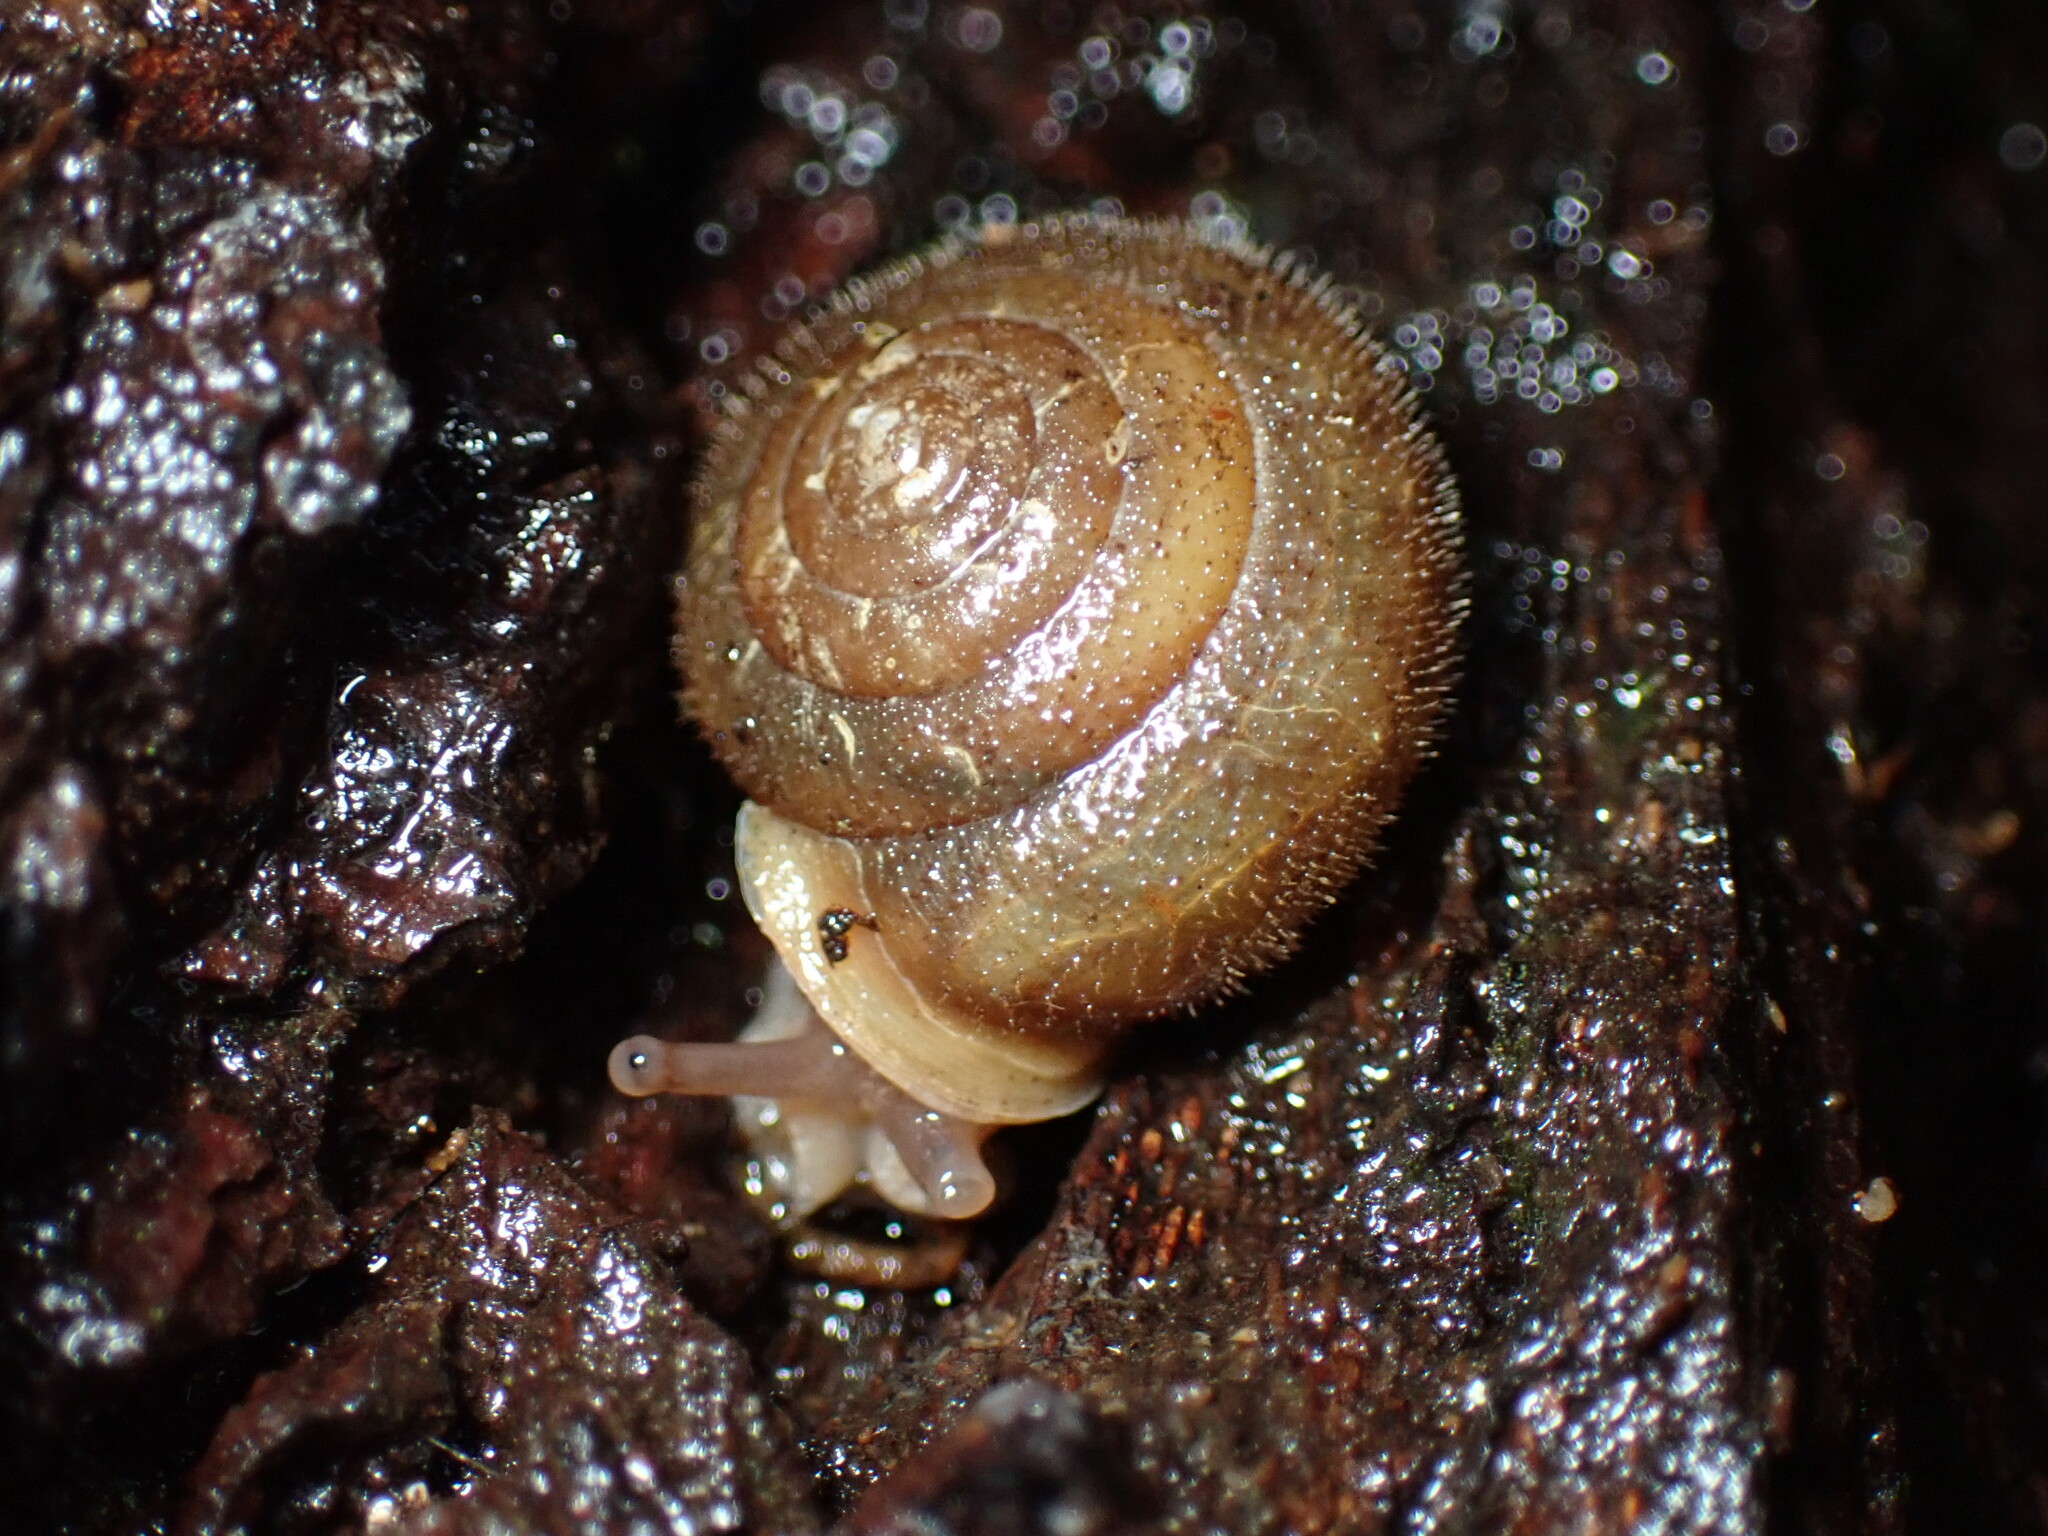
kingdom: Animalia
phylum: Mollusca
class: Gastropoda
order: Stylommatophora
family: Polygyridae
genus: Vespericola
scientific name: Vespericola columbianus
